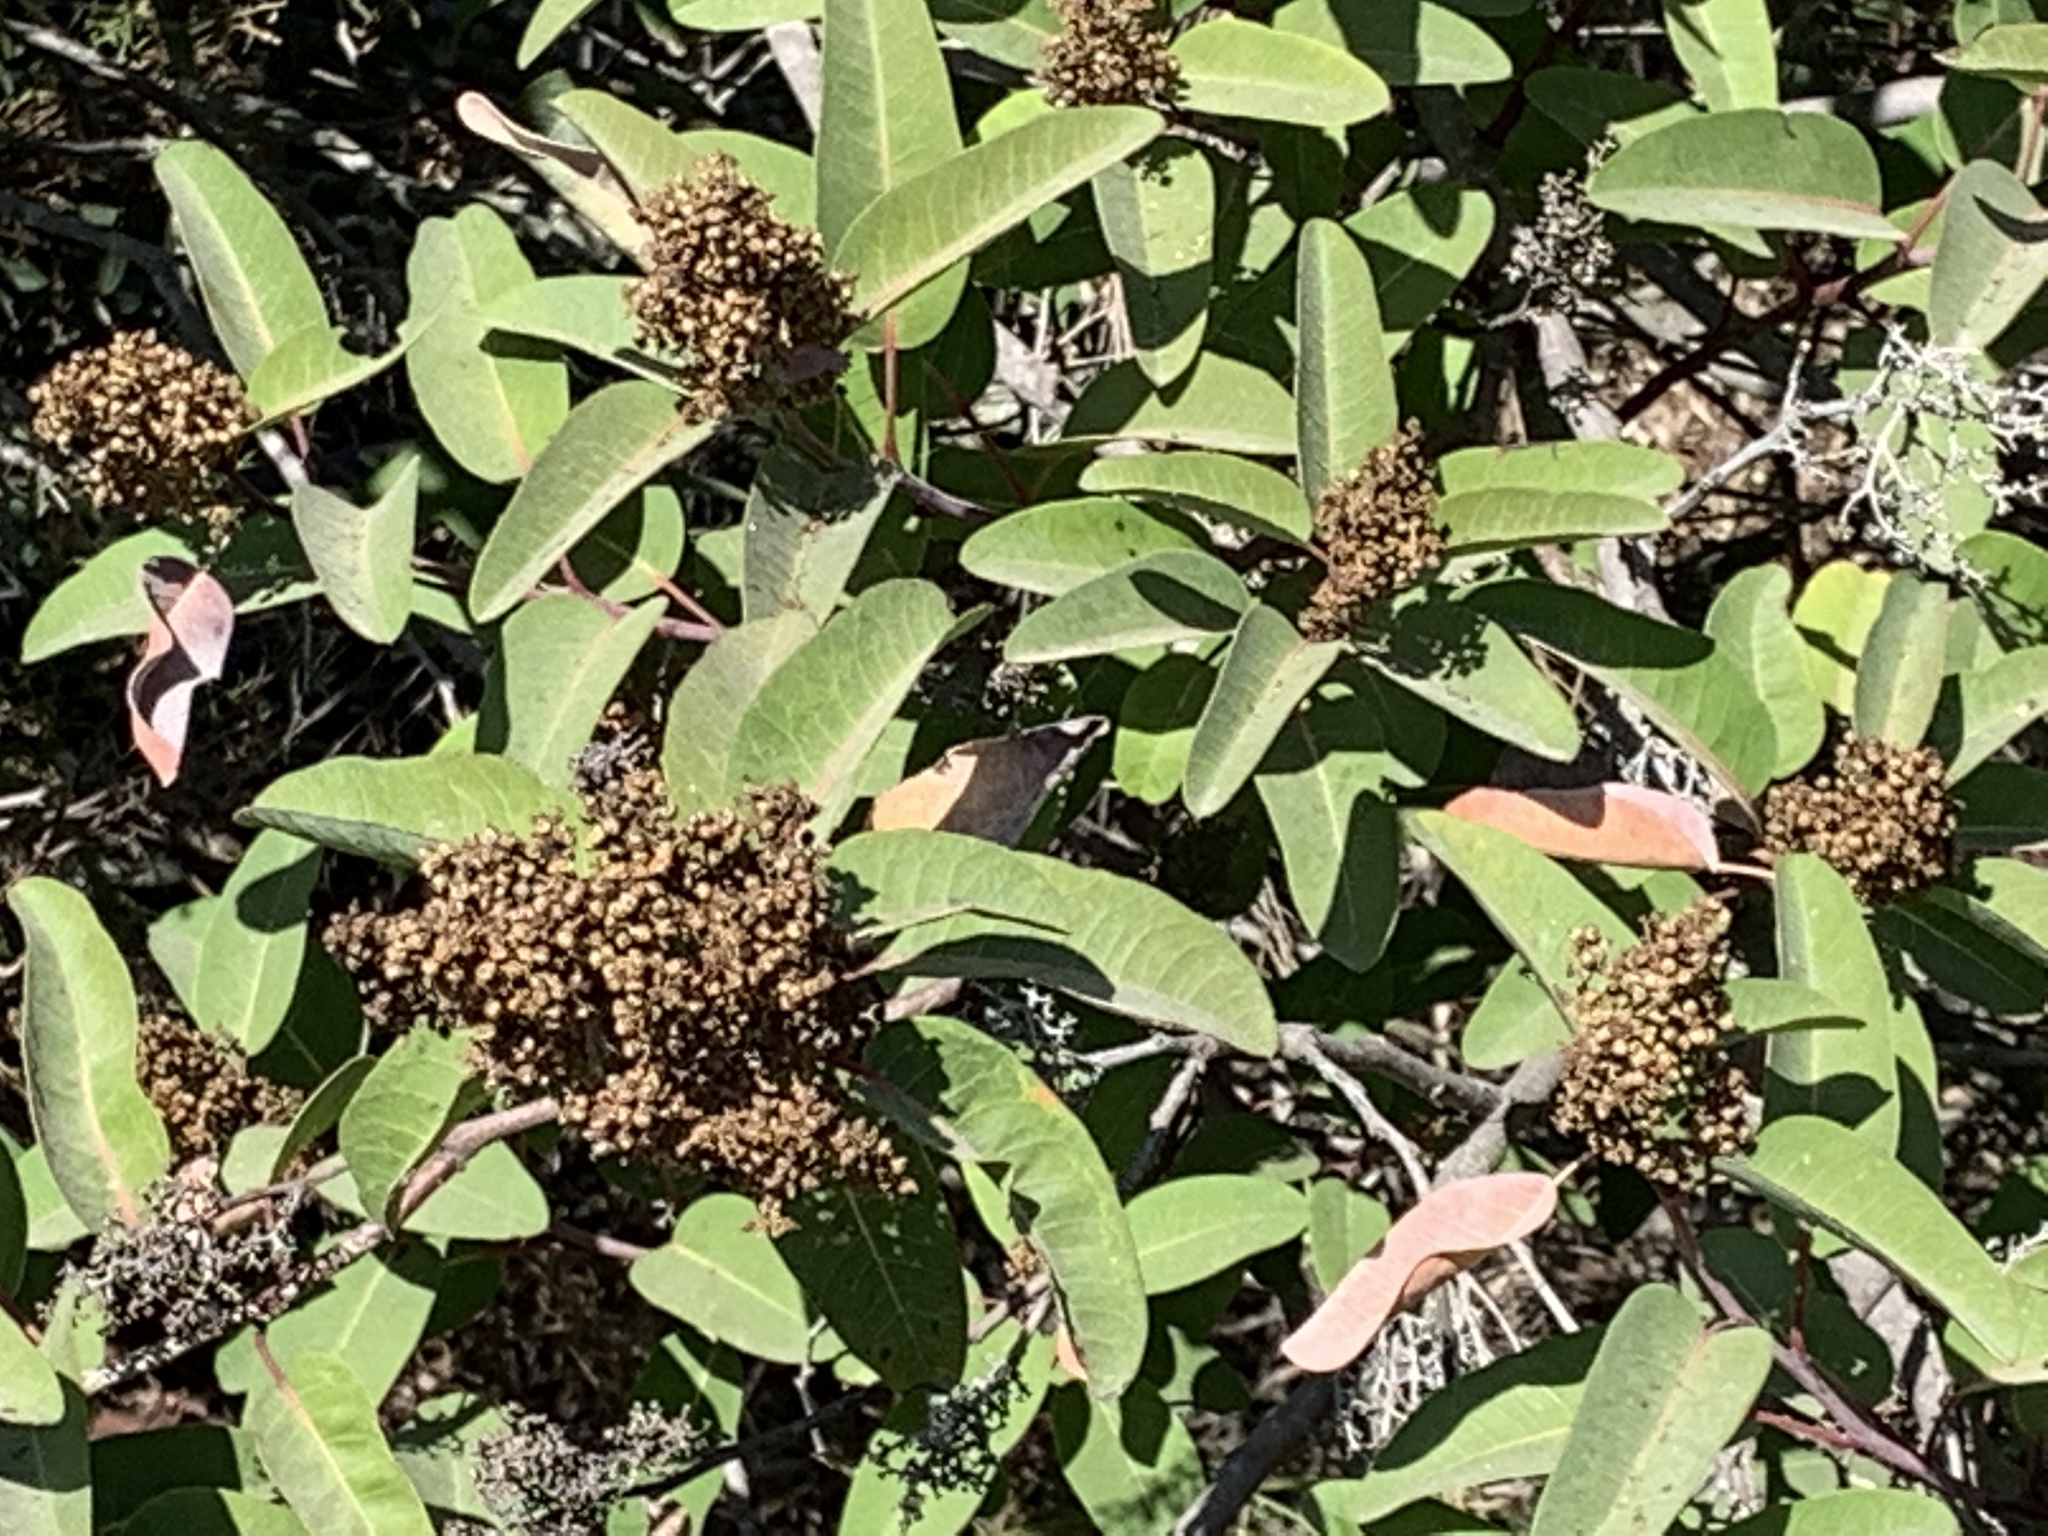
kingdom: Plantae
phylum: Tracheophyta
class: Magnoliopsida
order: Sapindales
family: Anacardiaceae
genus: Malosma
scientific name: Malosma laurina
